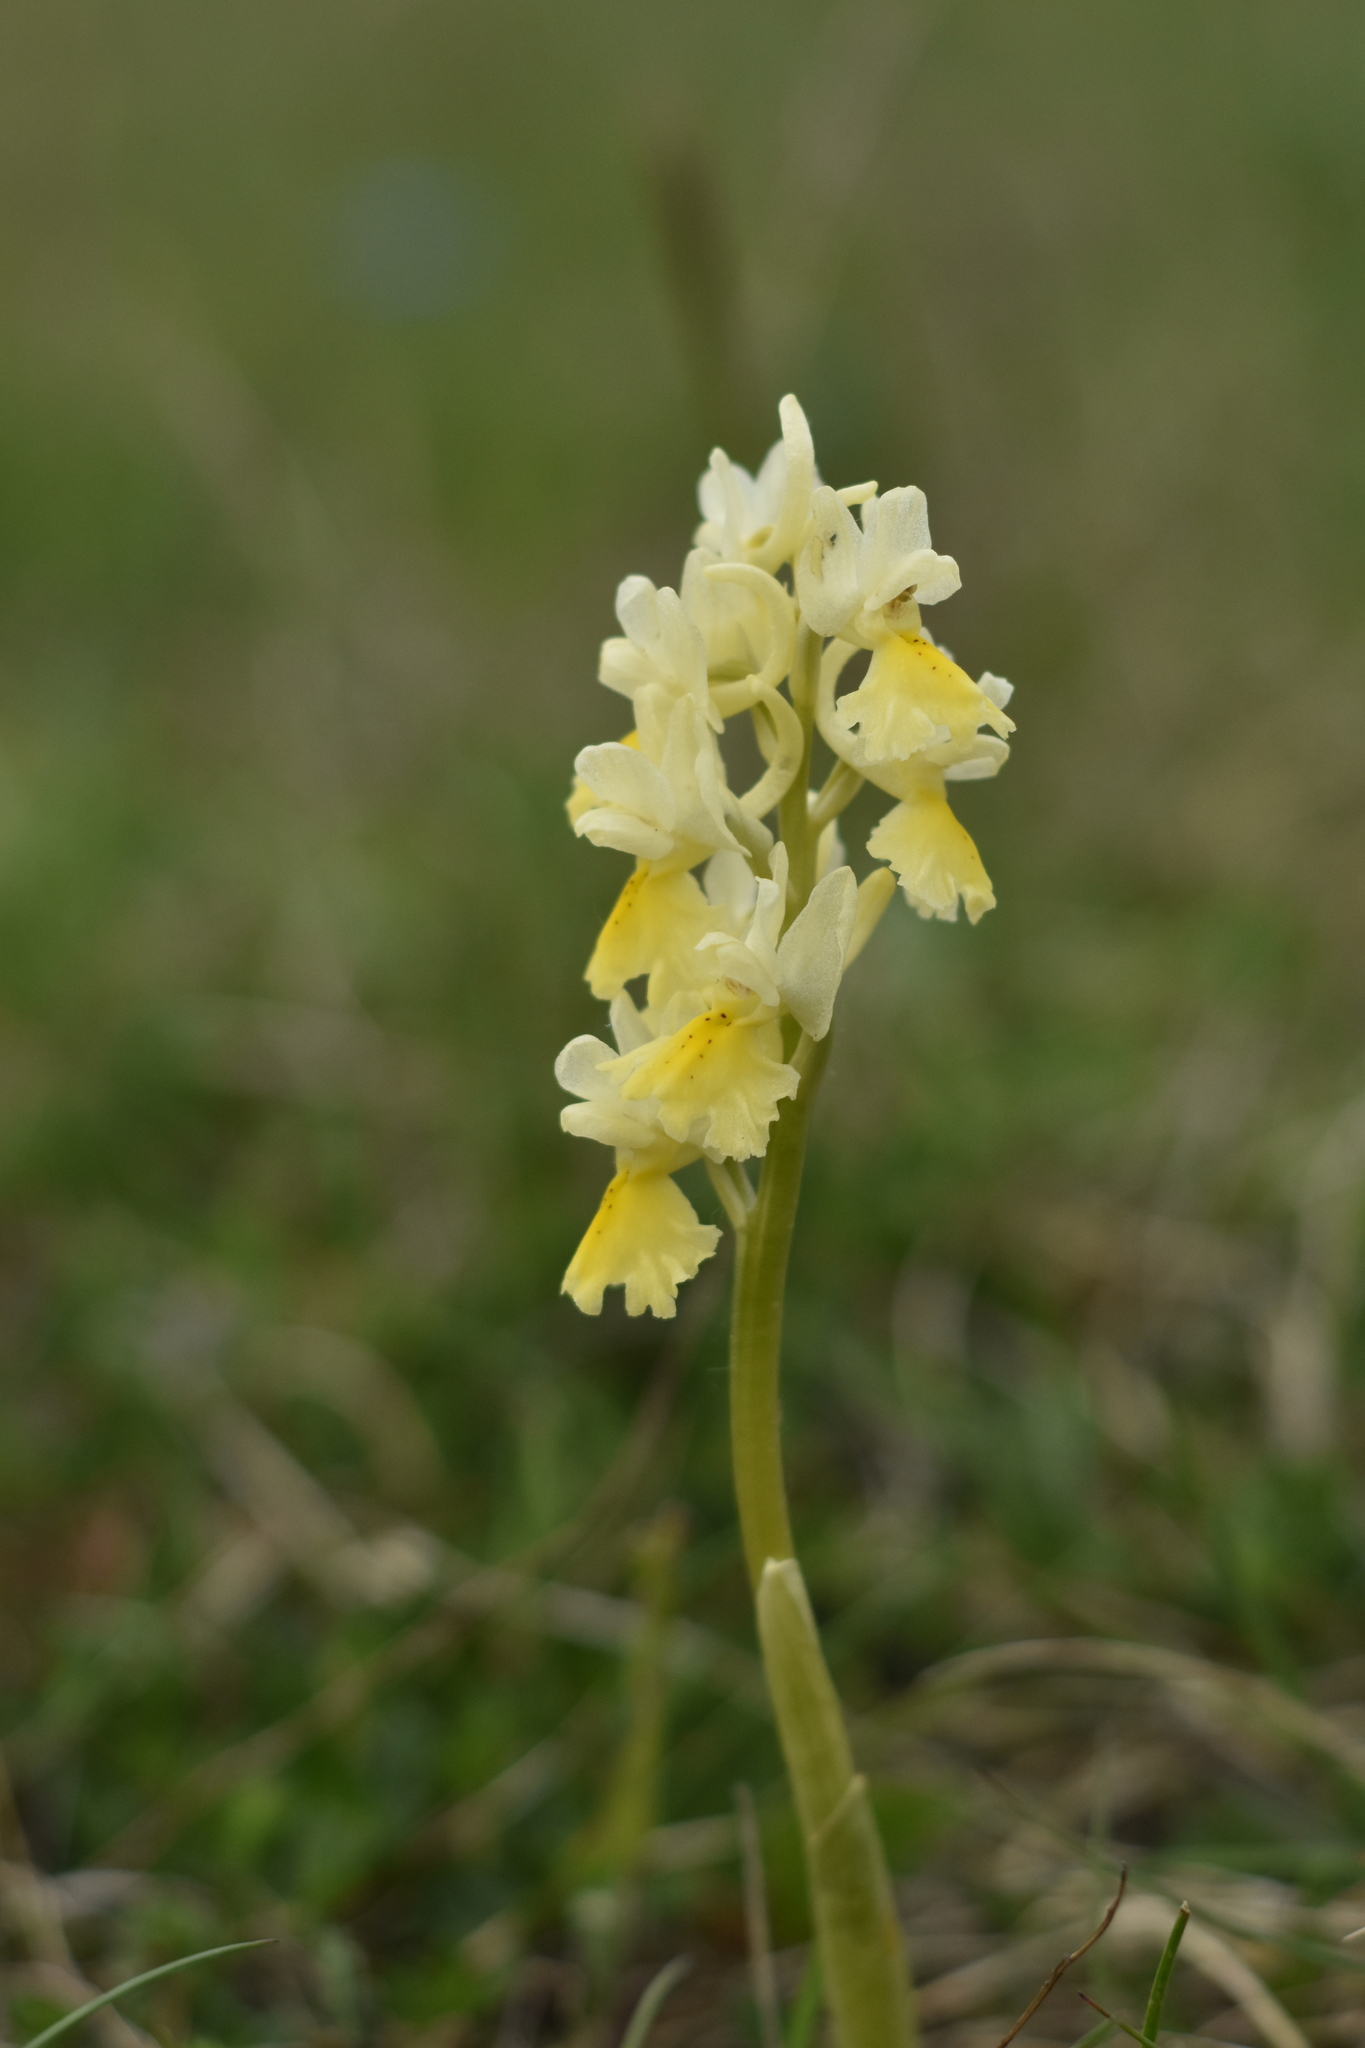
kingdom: Plantae
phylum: Tracheophyta
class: Liliopsida
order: Asparagales
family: Orchidaceae
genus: Orchis
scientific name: Orchis pauciflora
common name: Few-flowered orchid
